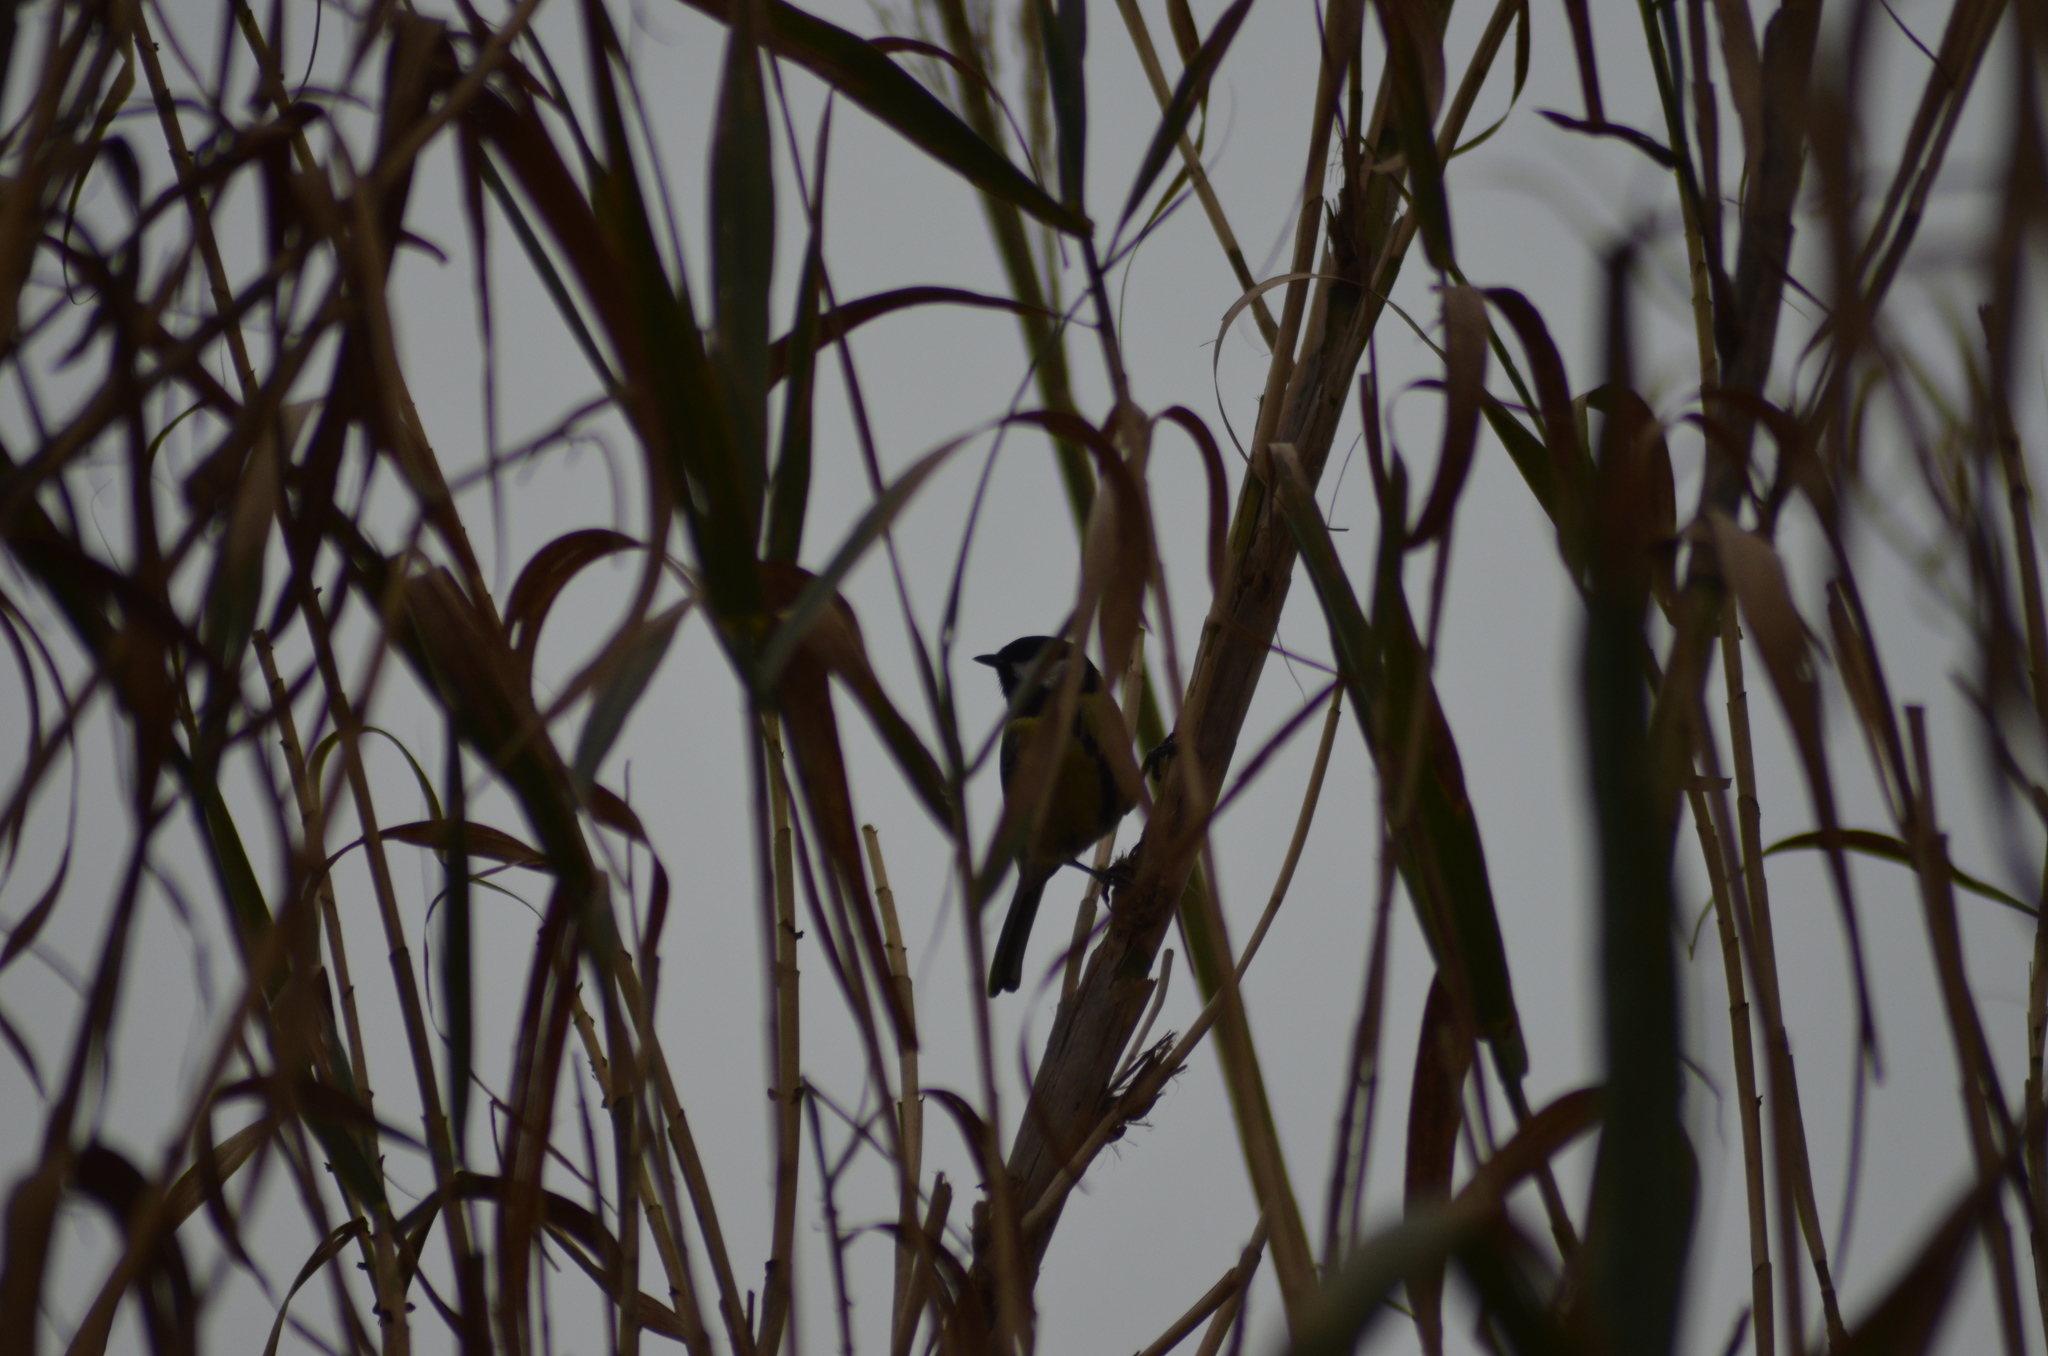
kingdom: Animalia
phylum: Chordata
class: Aves
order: Passeriformes
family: Paridae
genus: Parus
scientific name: Parus major
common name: Great tit
